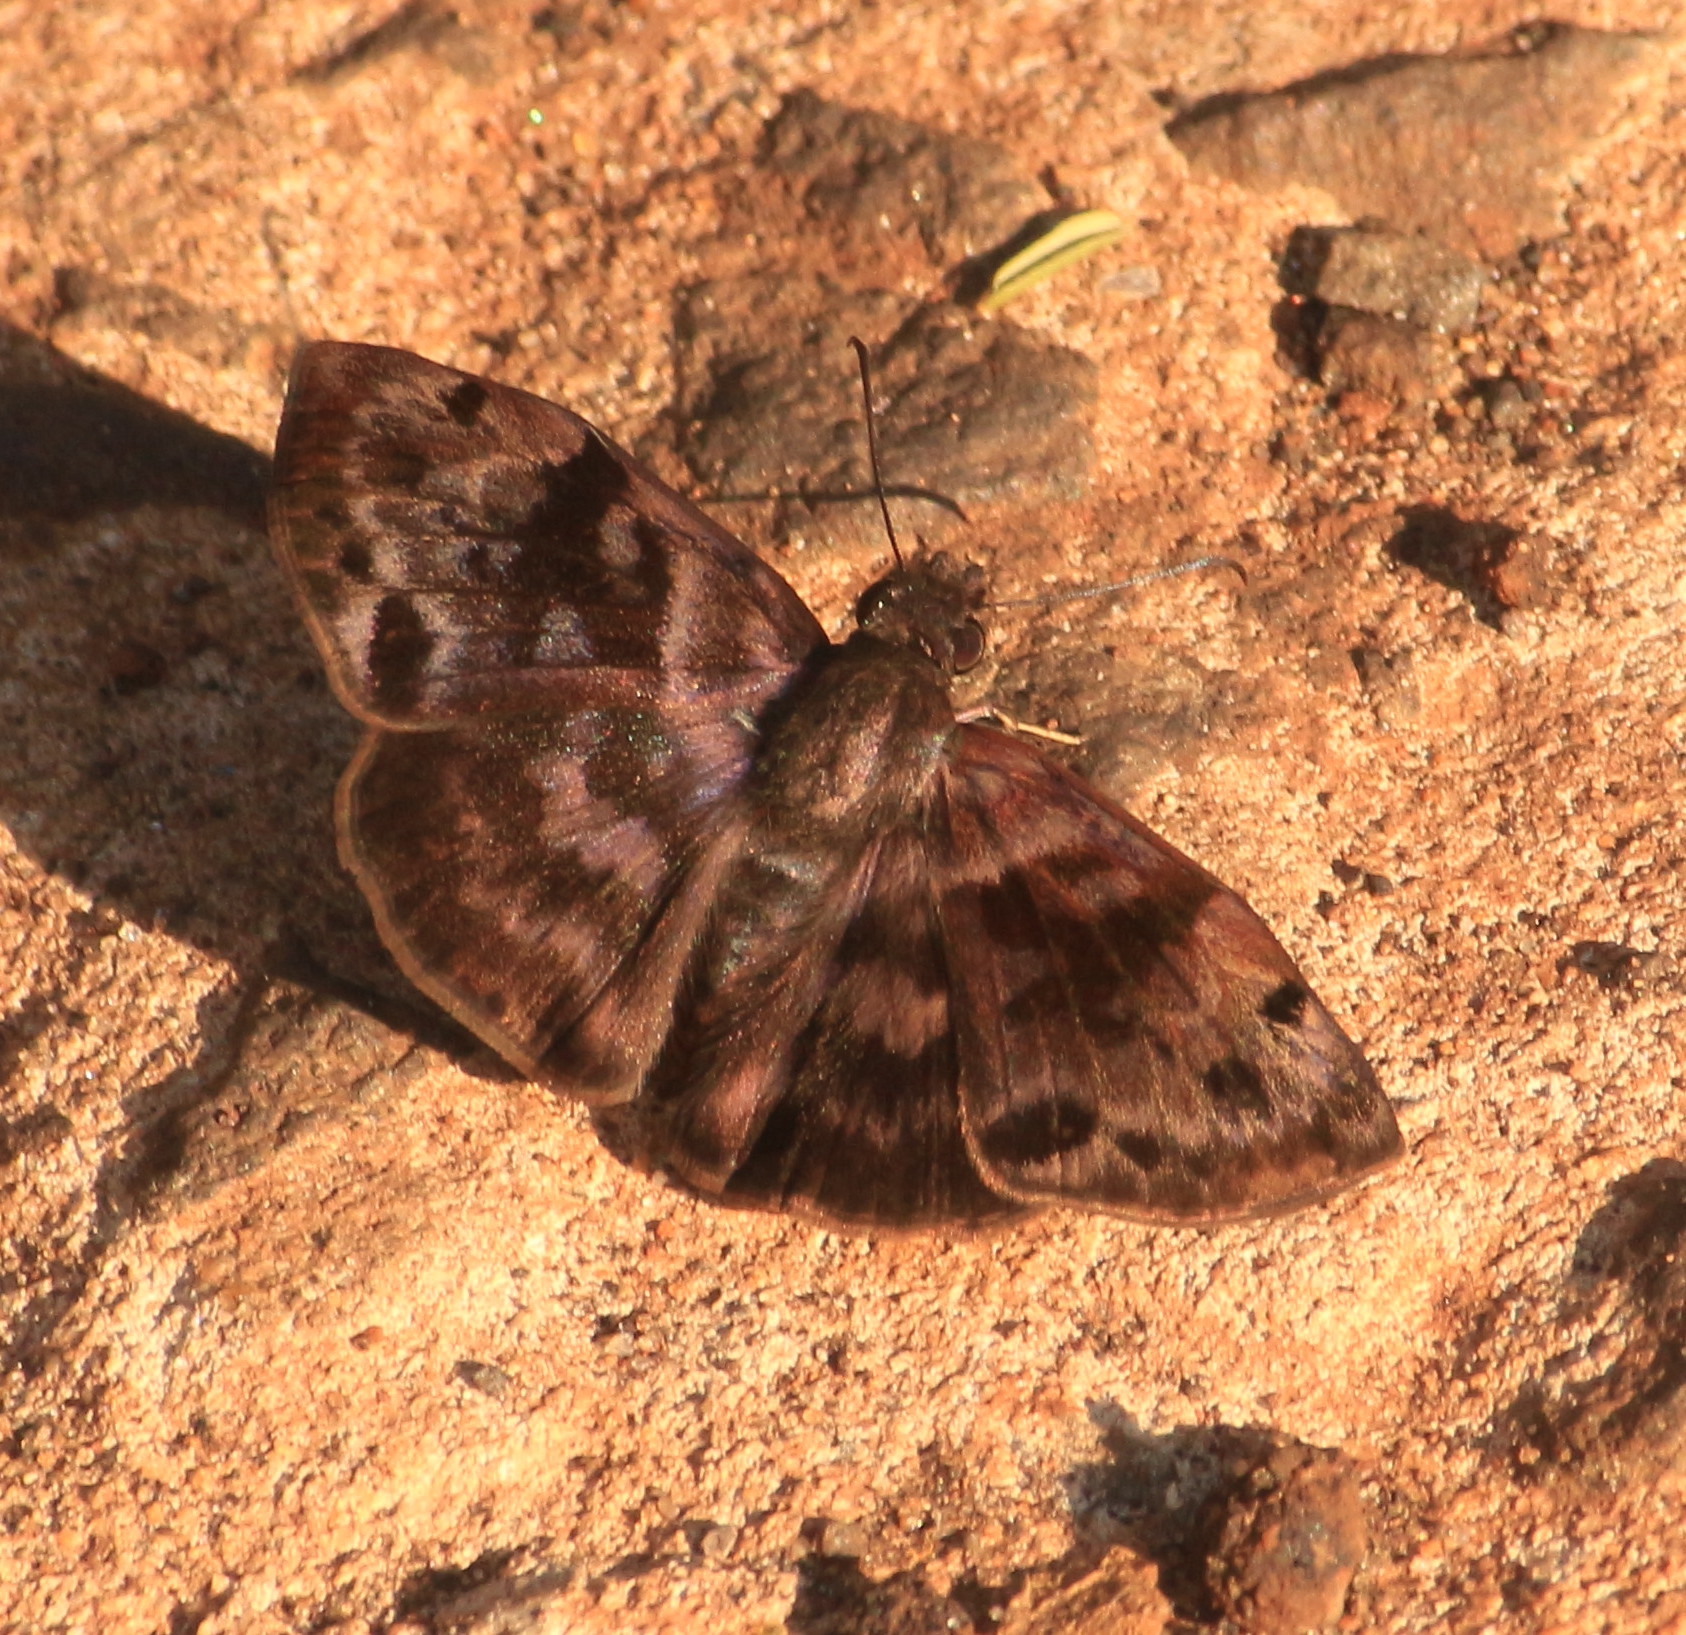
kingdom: Animalia
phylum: Arthropoda
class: Insecta
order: Lepidoptera
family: Hesperiidae
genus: Ebrietas
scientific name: Ebrietas anacreon
